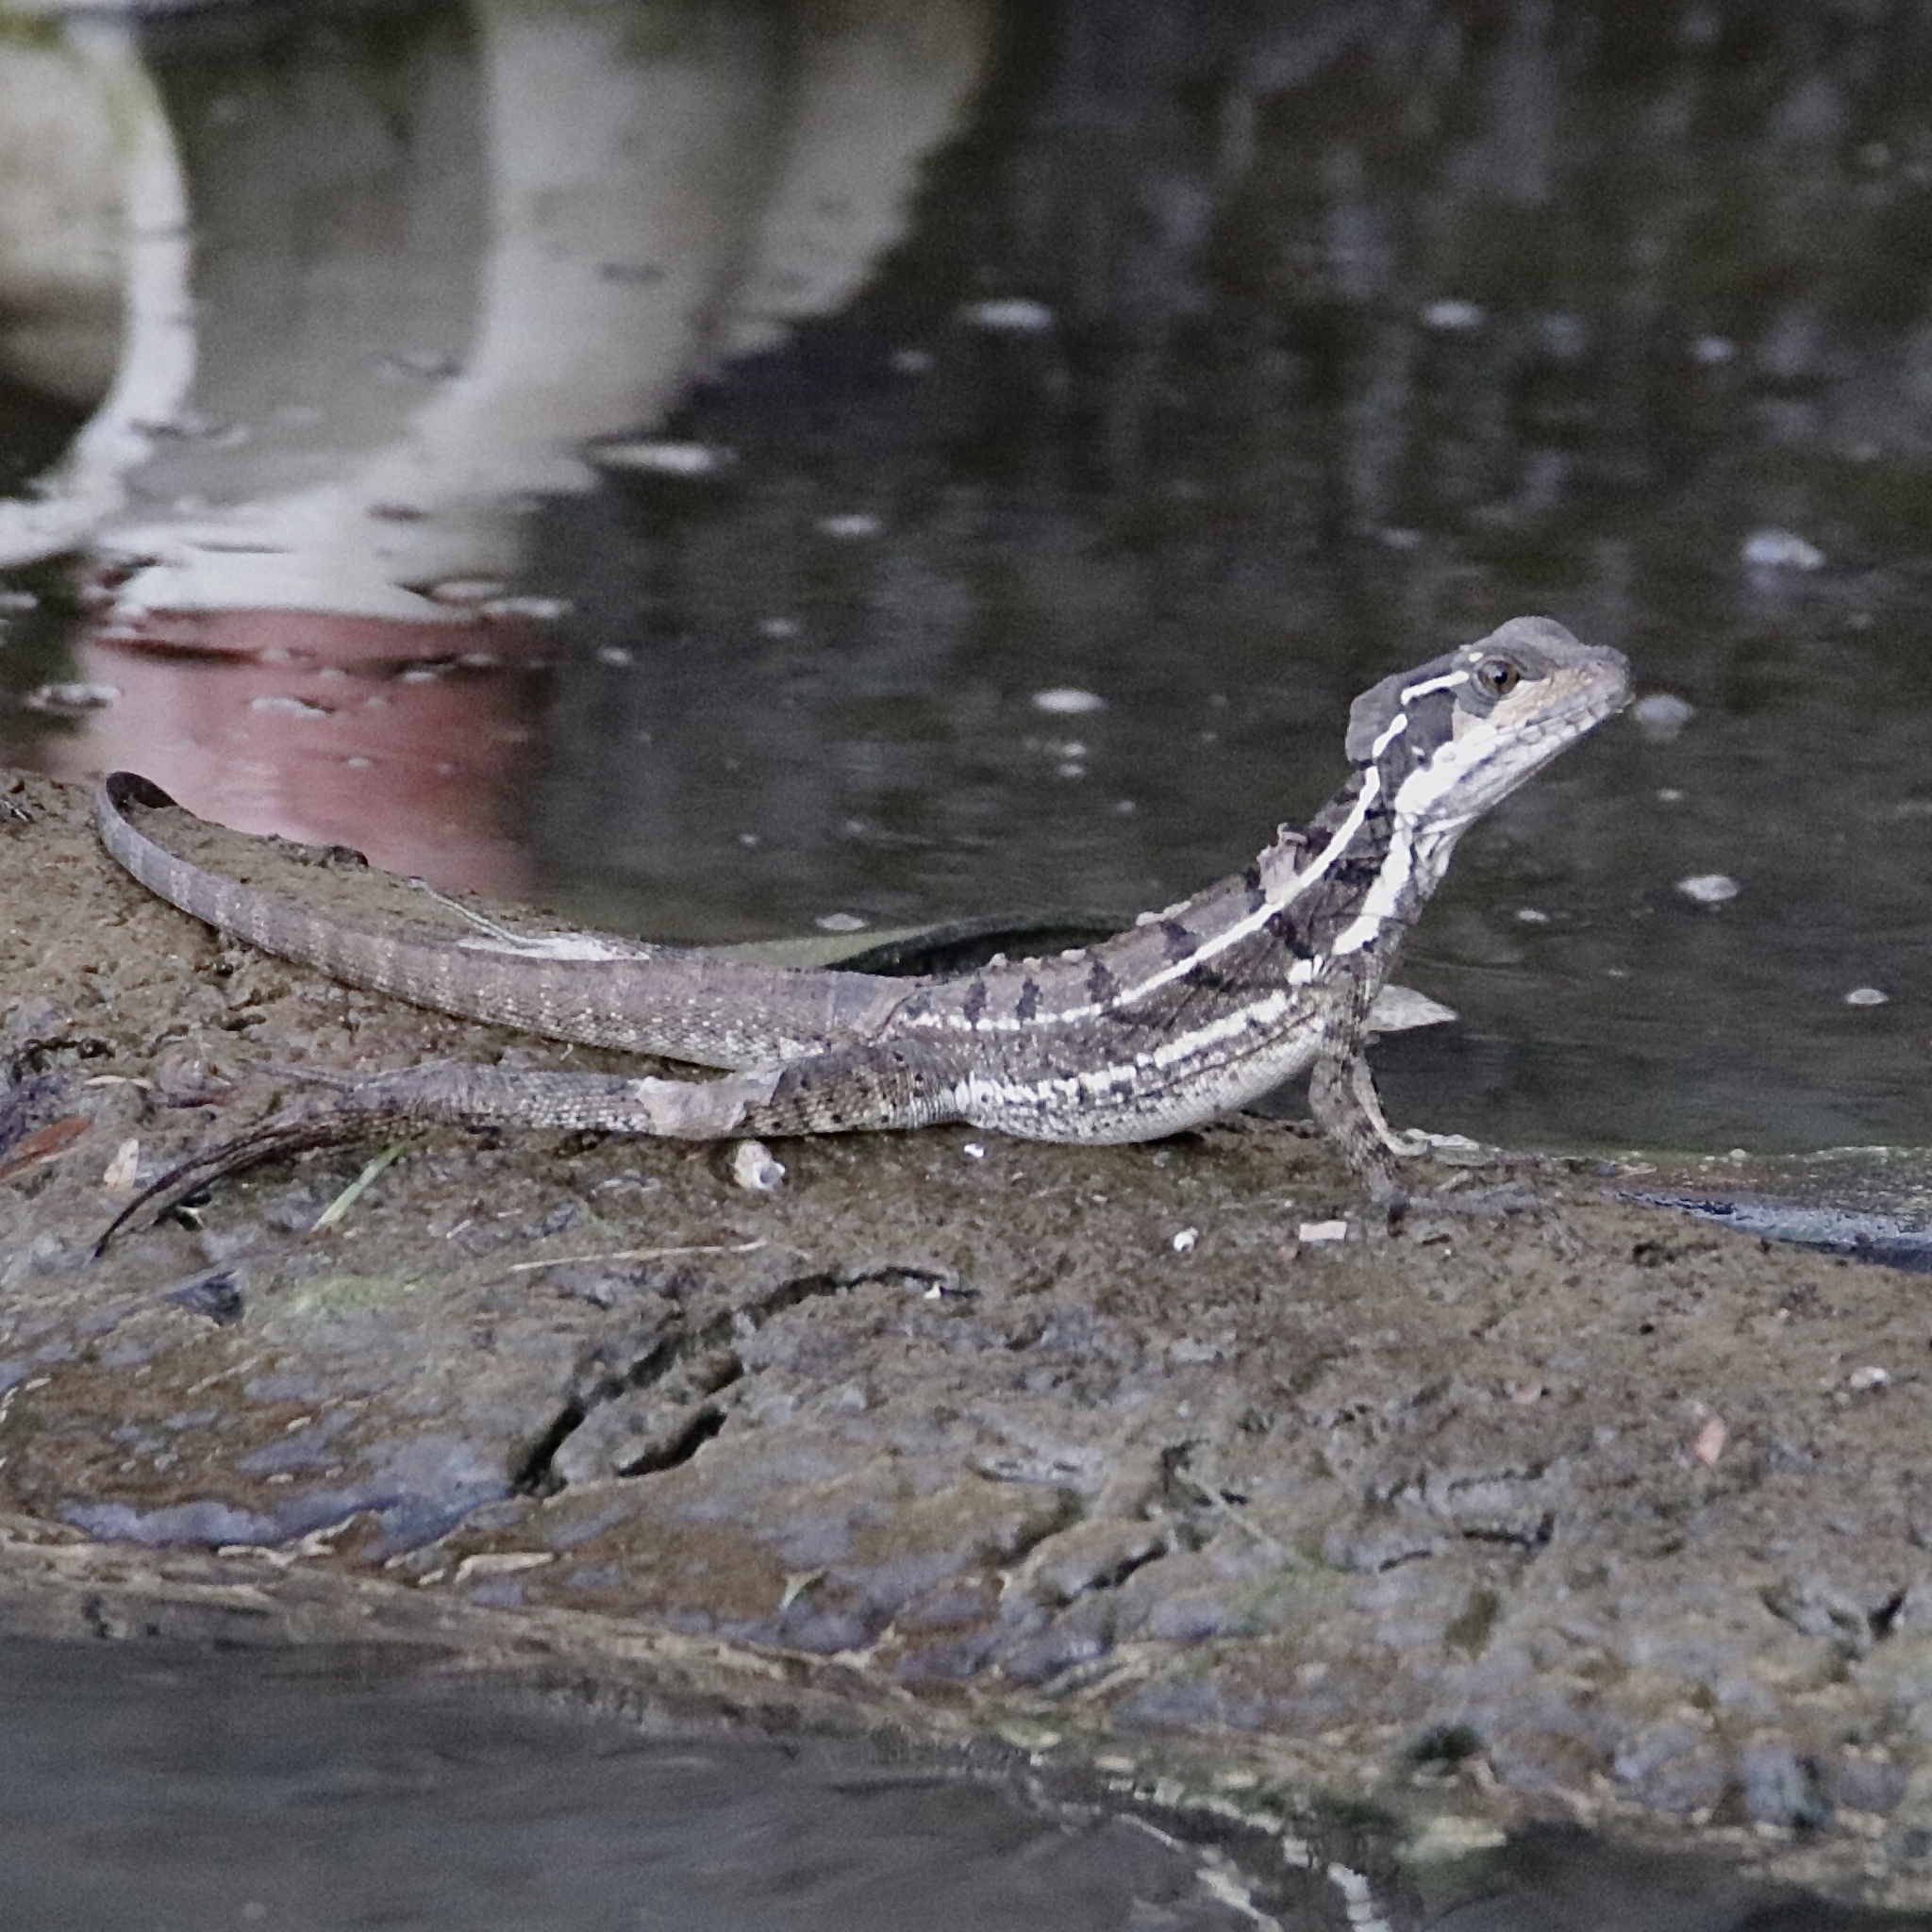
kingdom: Animalia
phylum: Chordata
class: Squamata
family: Corytophanidae
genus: Basiliscus
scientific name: Basiliscus basiliscus
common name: Common basilisk
